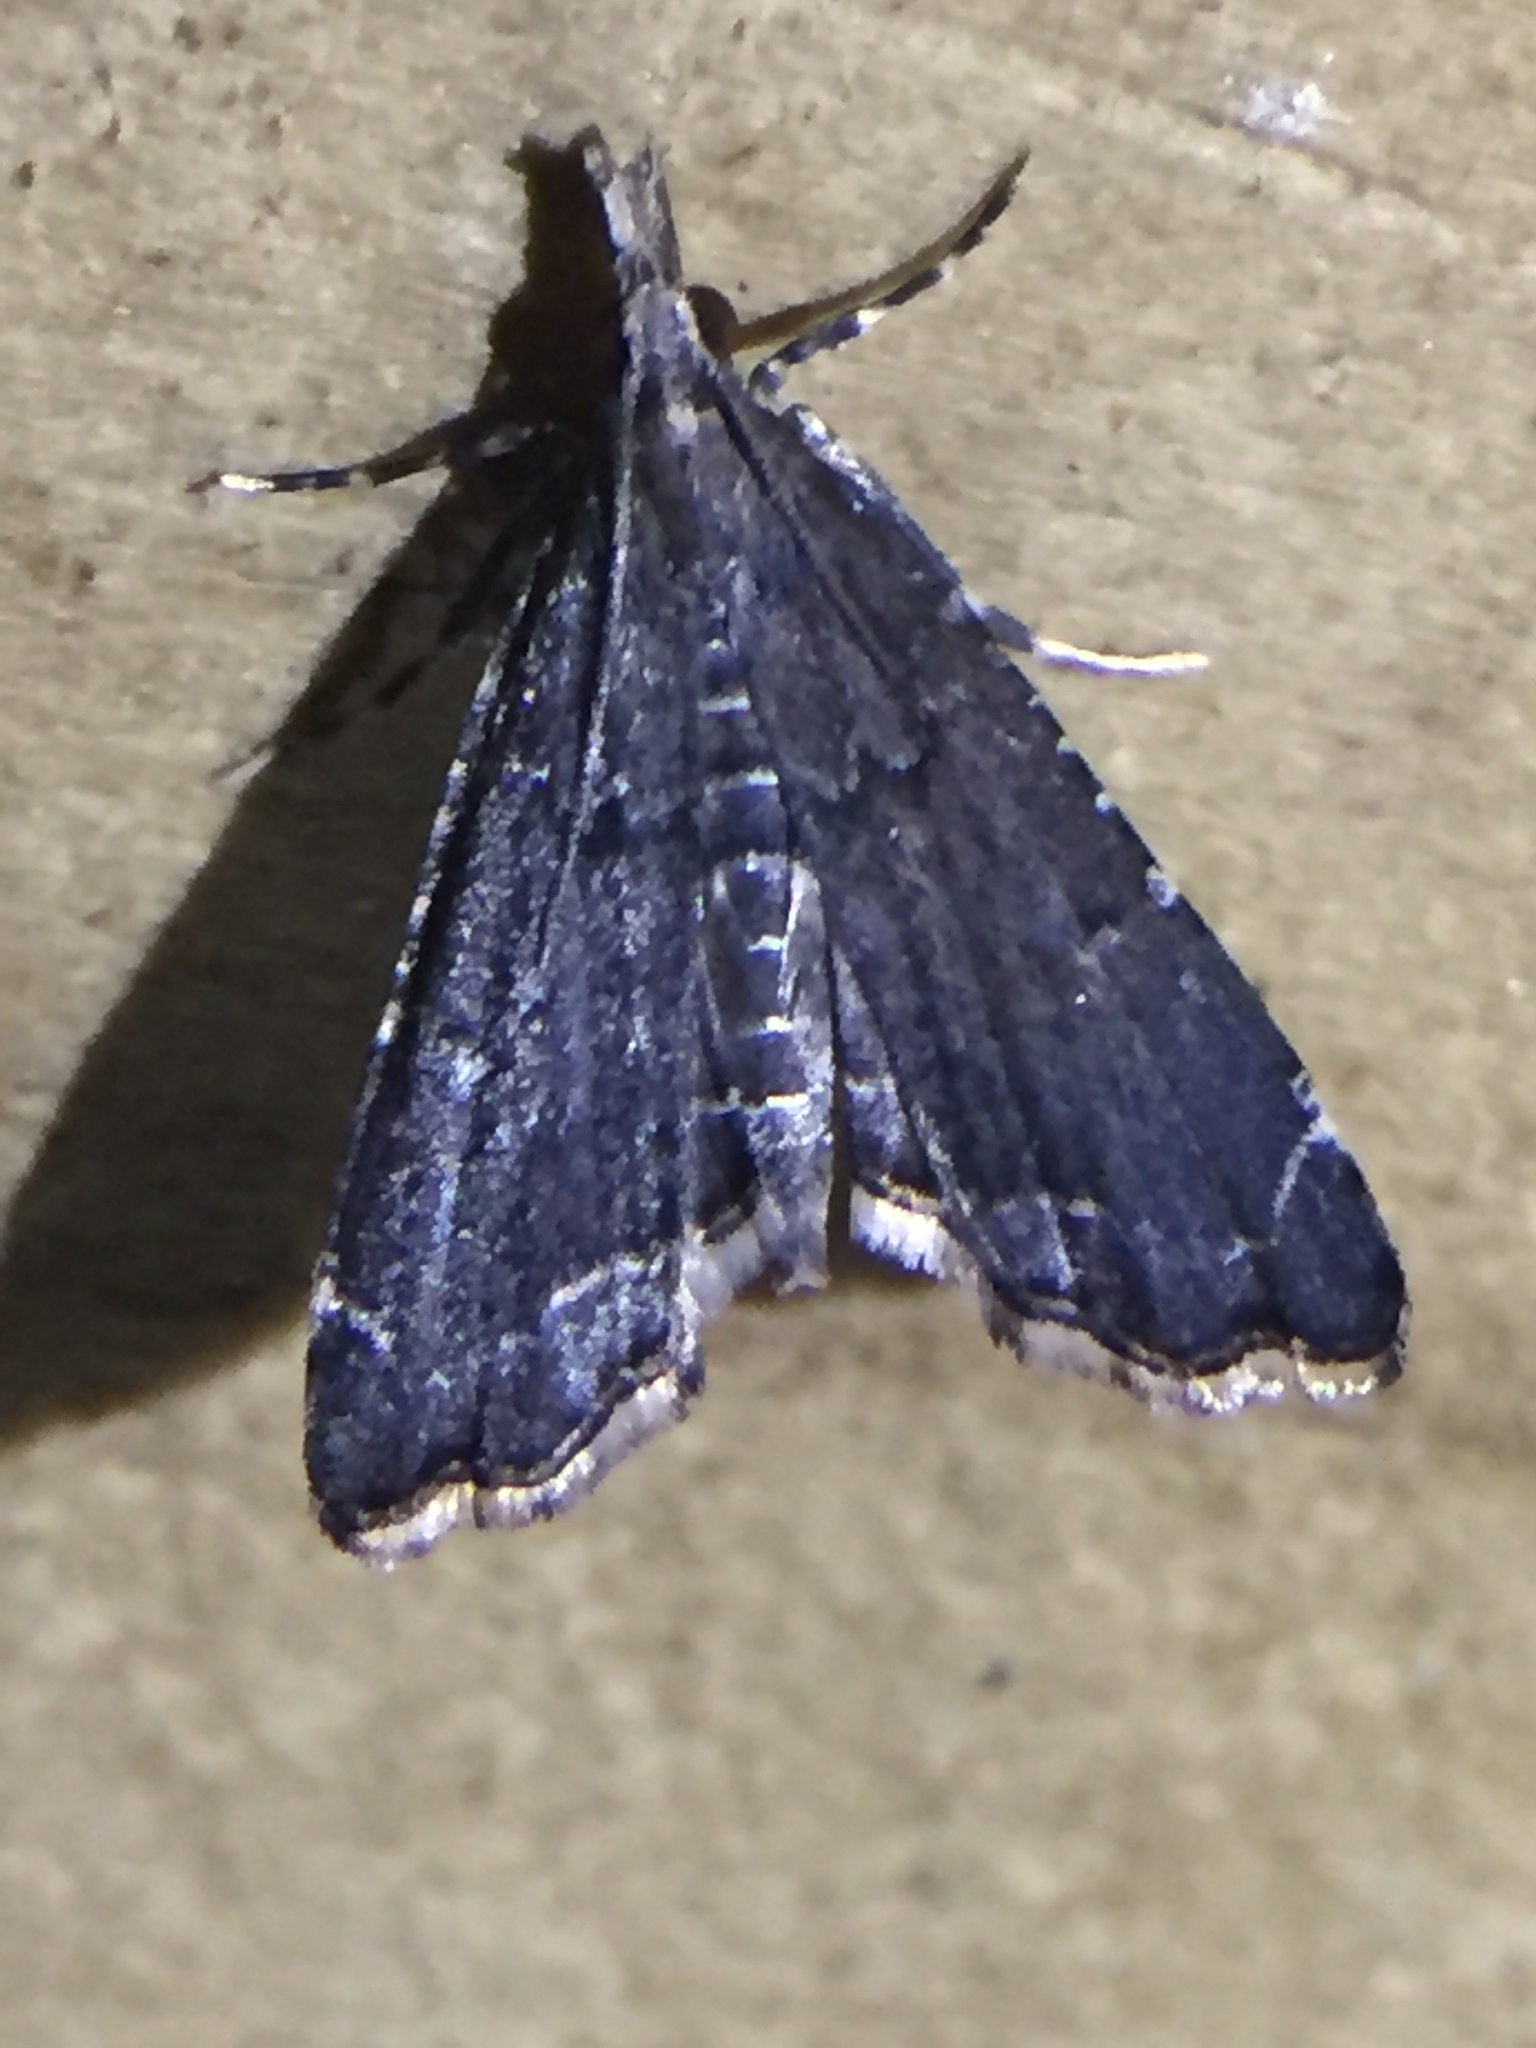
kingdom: Animalia
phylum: Arthropoda
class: Insecta
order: Lepidoptera
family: Crambidae
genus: Diplopseustis
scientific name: Diplopseustis perieresalis
